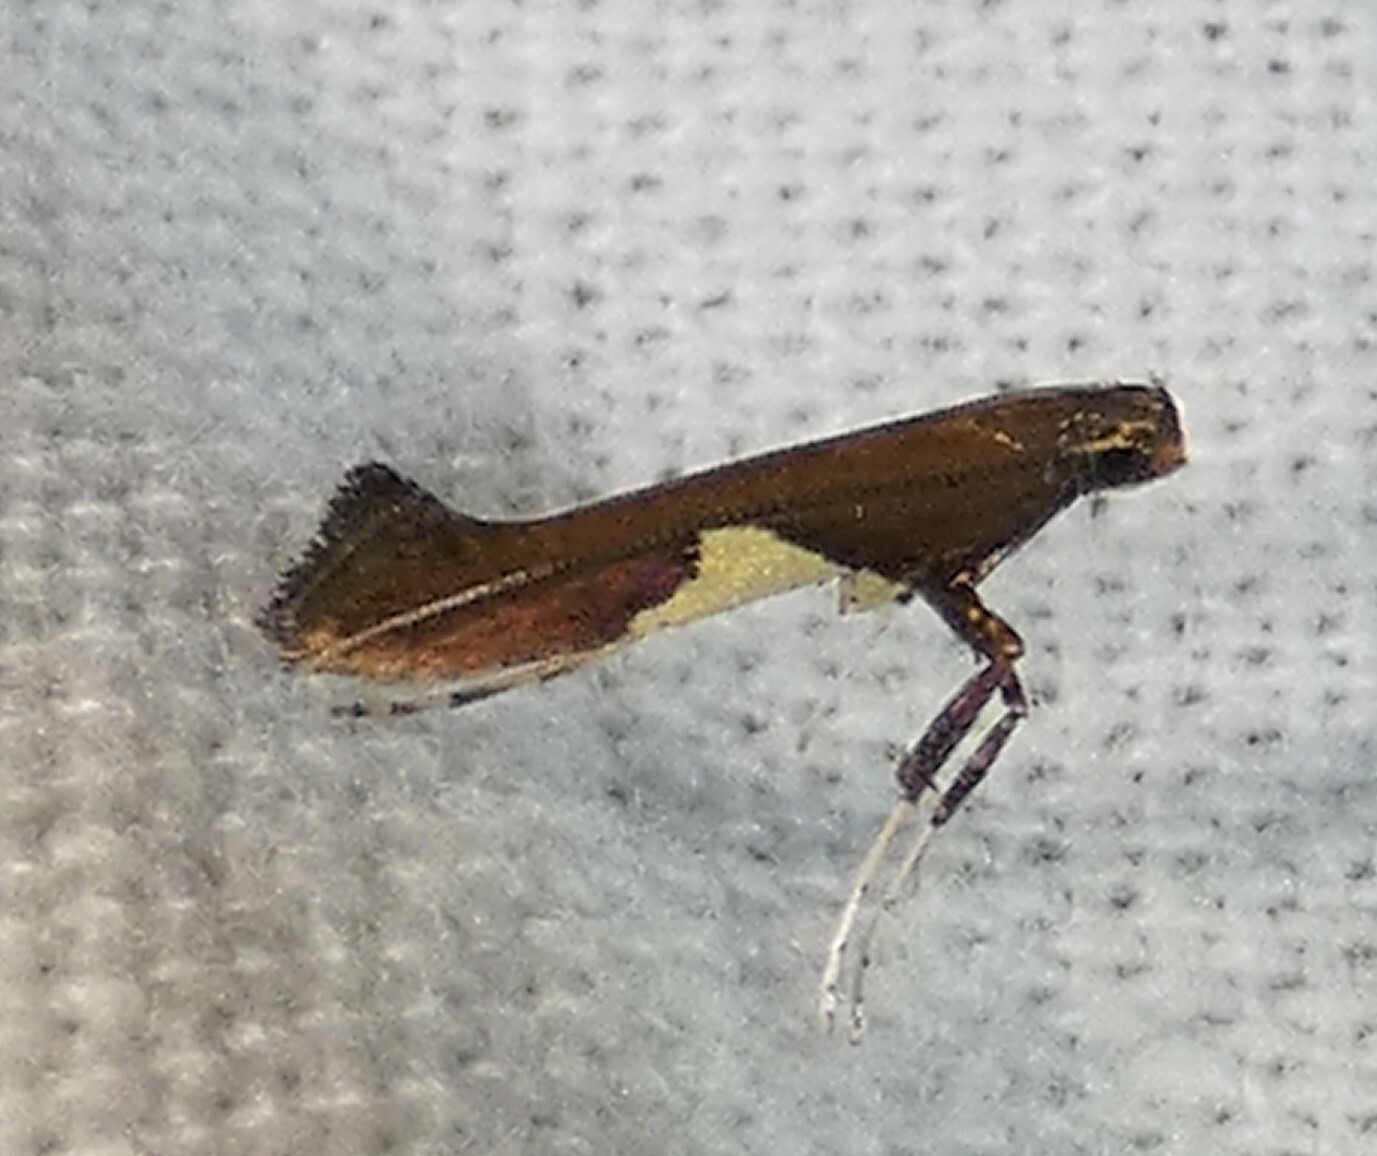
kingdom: Animalia
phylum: Arthropoda
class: Insecta
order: Lepidoptera
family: Gracillariidae
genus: Caloptilia
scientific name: Caloptilia stigmatella
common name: White-triangle slender
